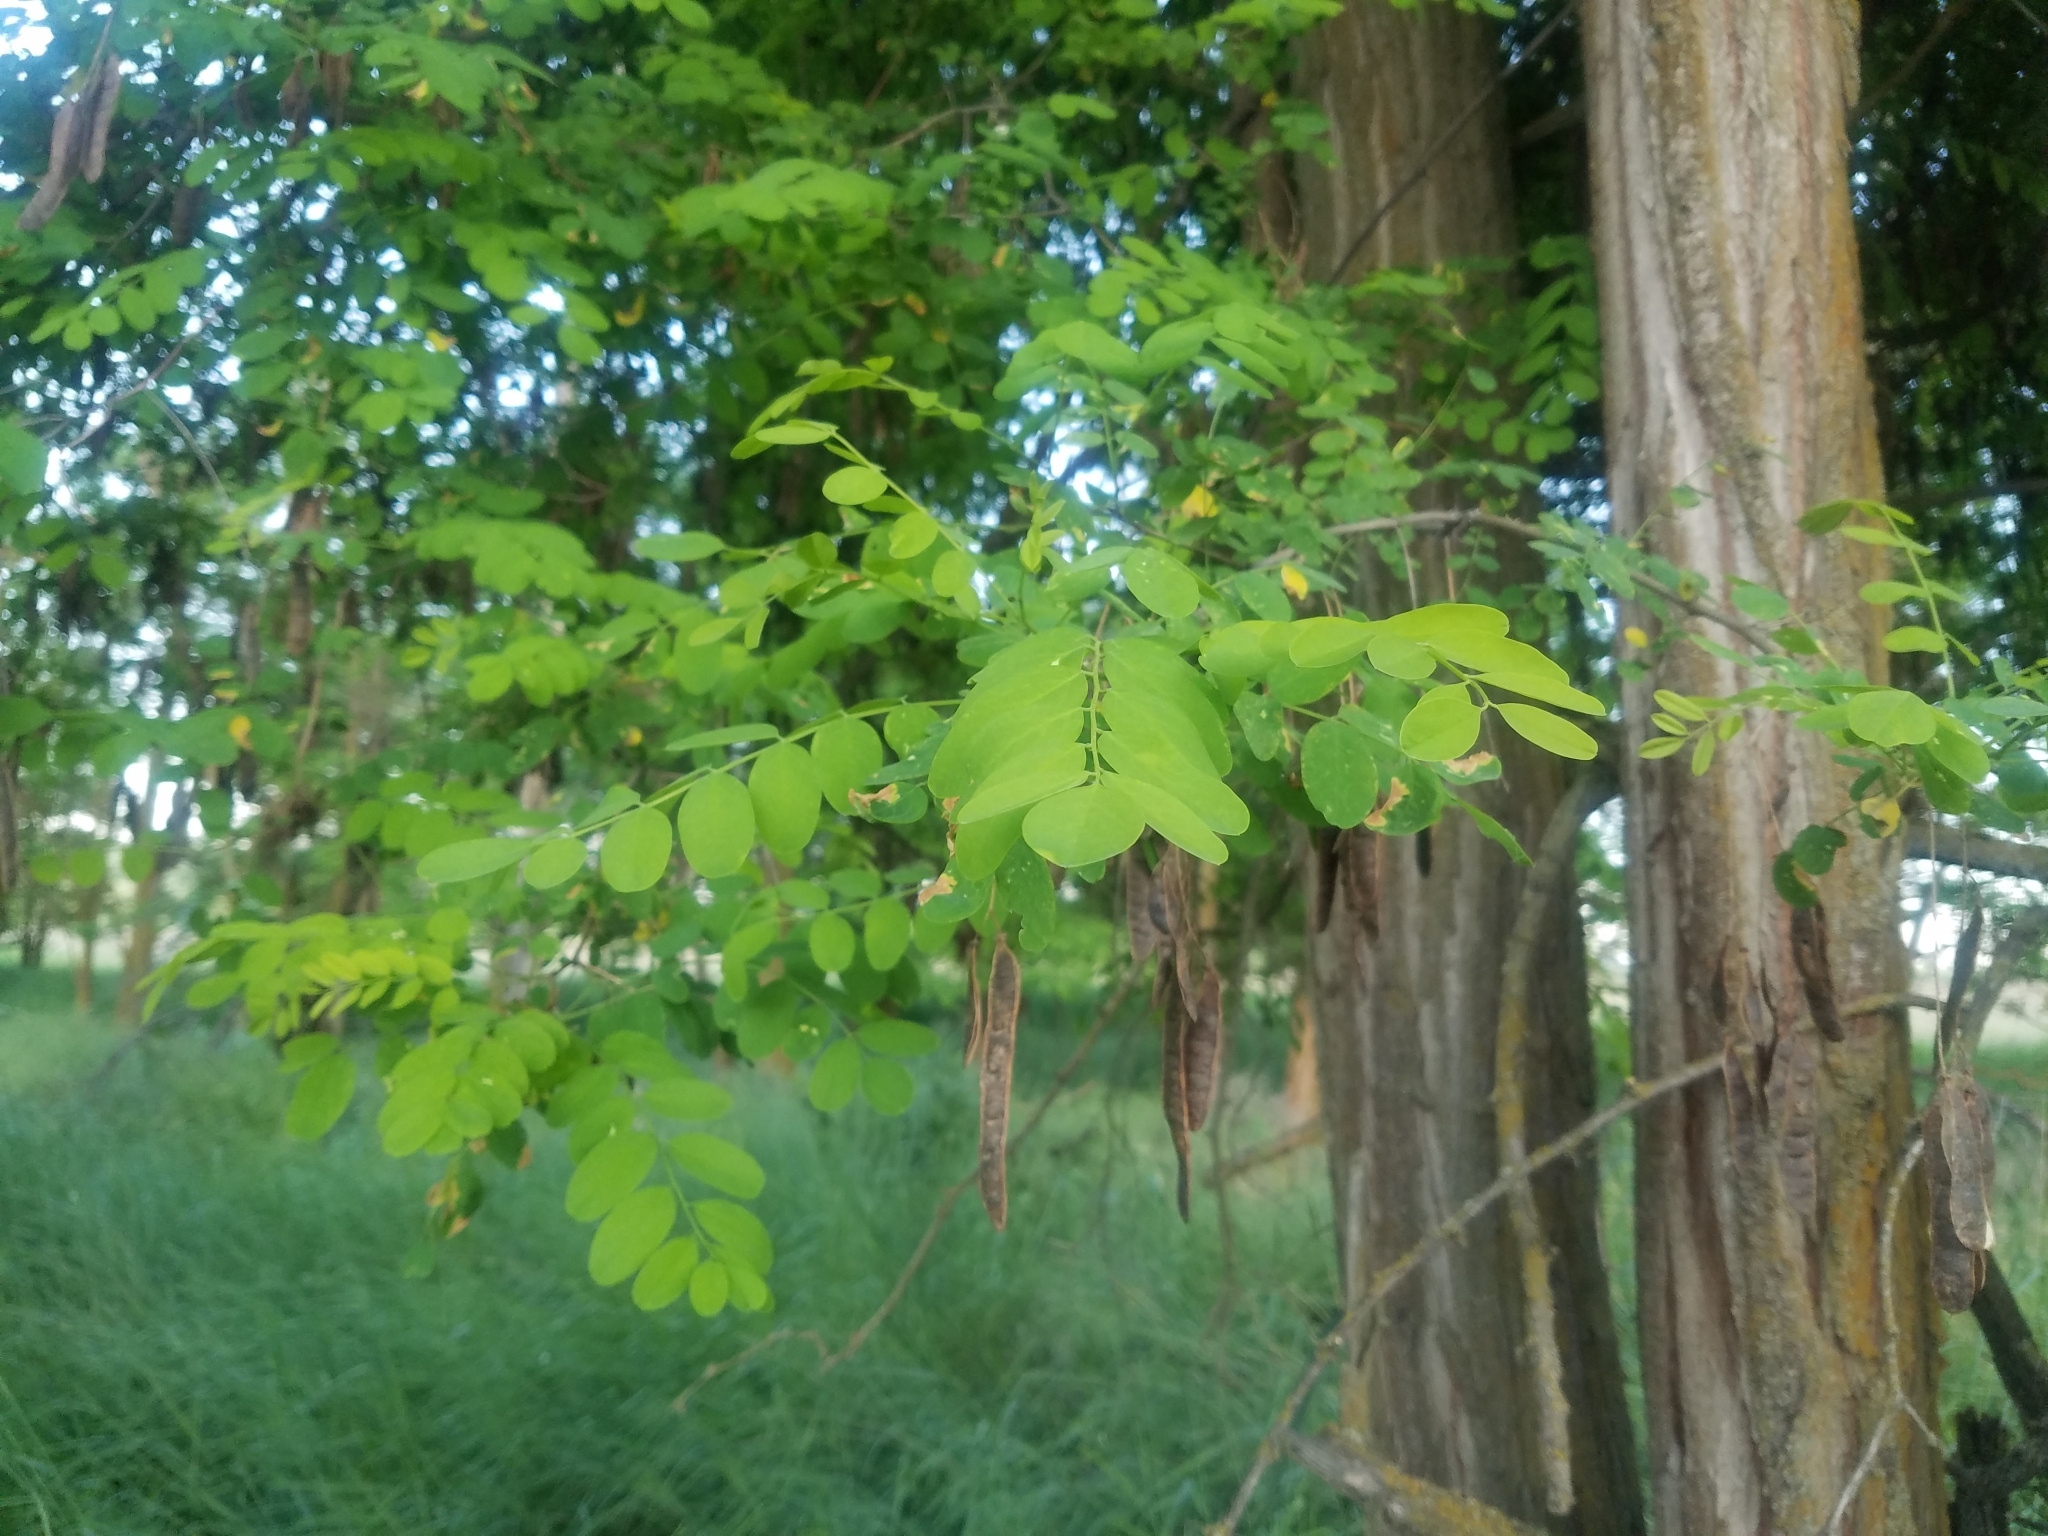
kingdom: Plantae
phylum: Tracheophyta
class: Magnoliopsida
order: Fabales
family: Fabaceae
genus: Robinia
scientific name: Robinia pseudoacacia
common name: Black locust
